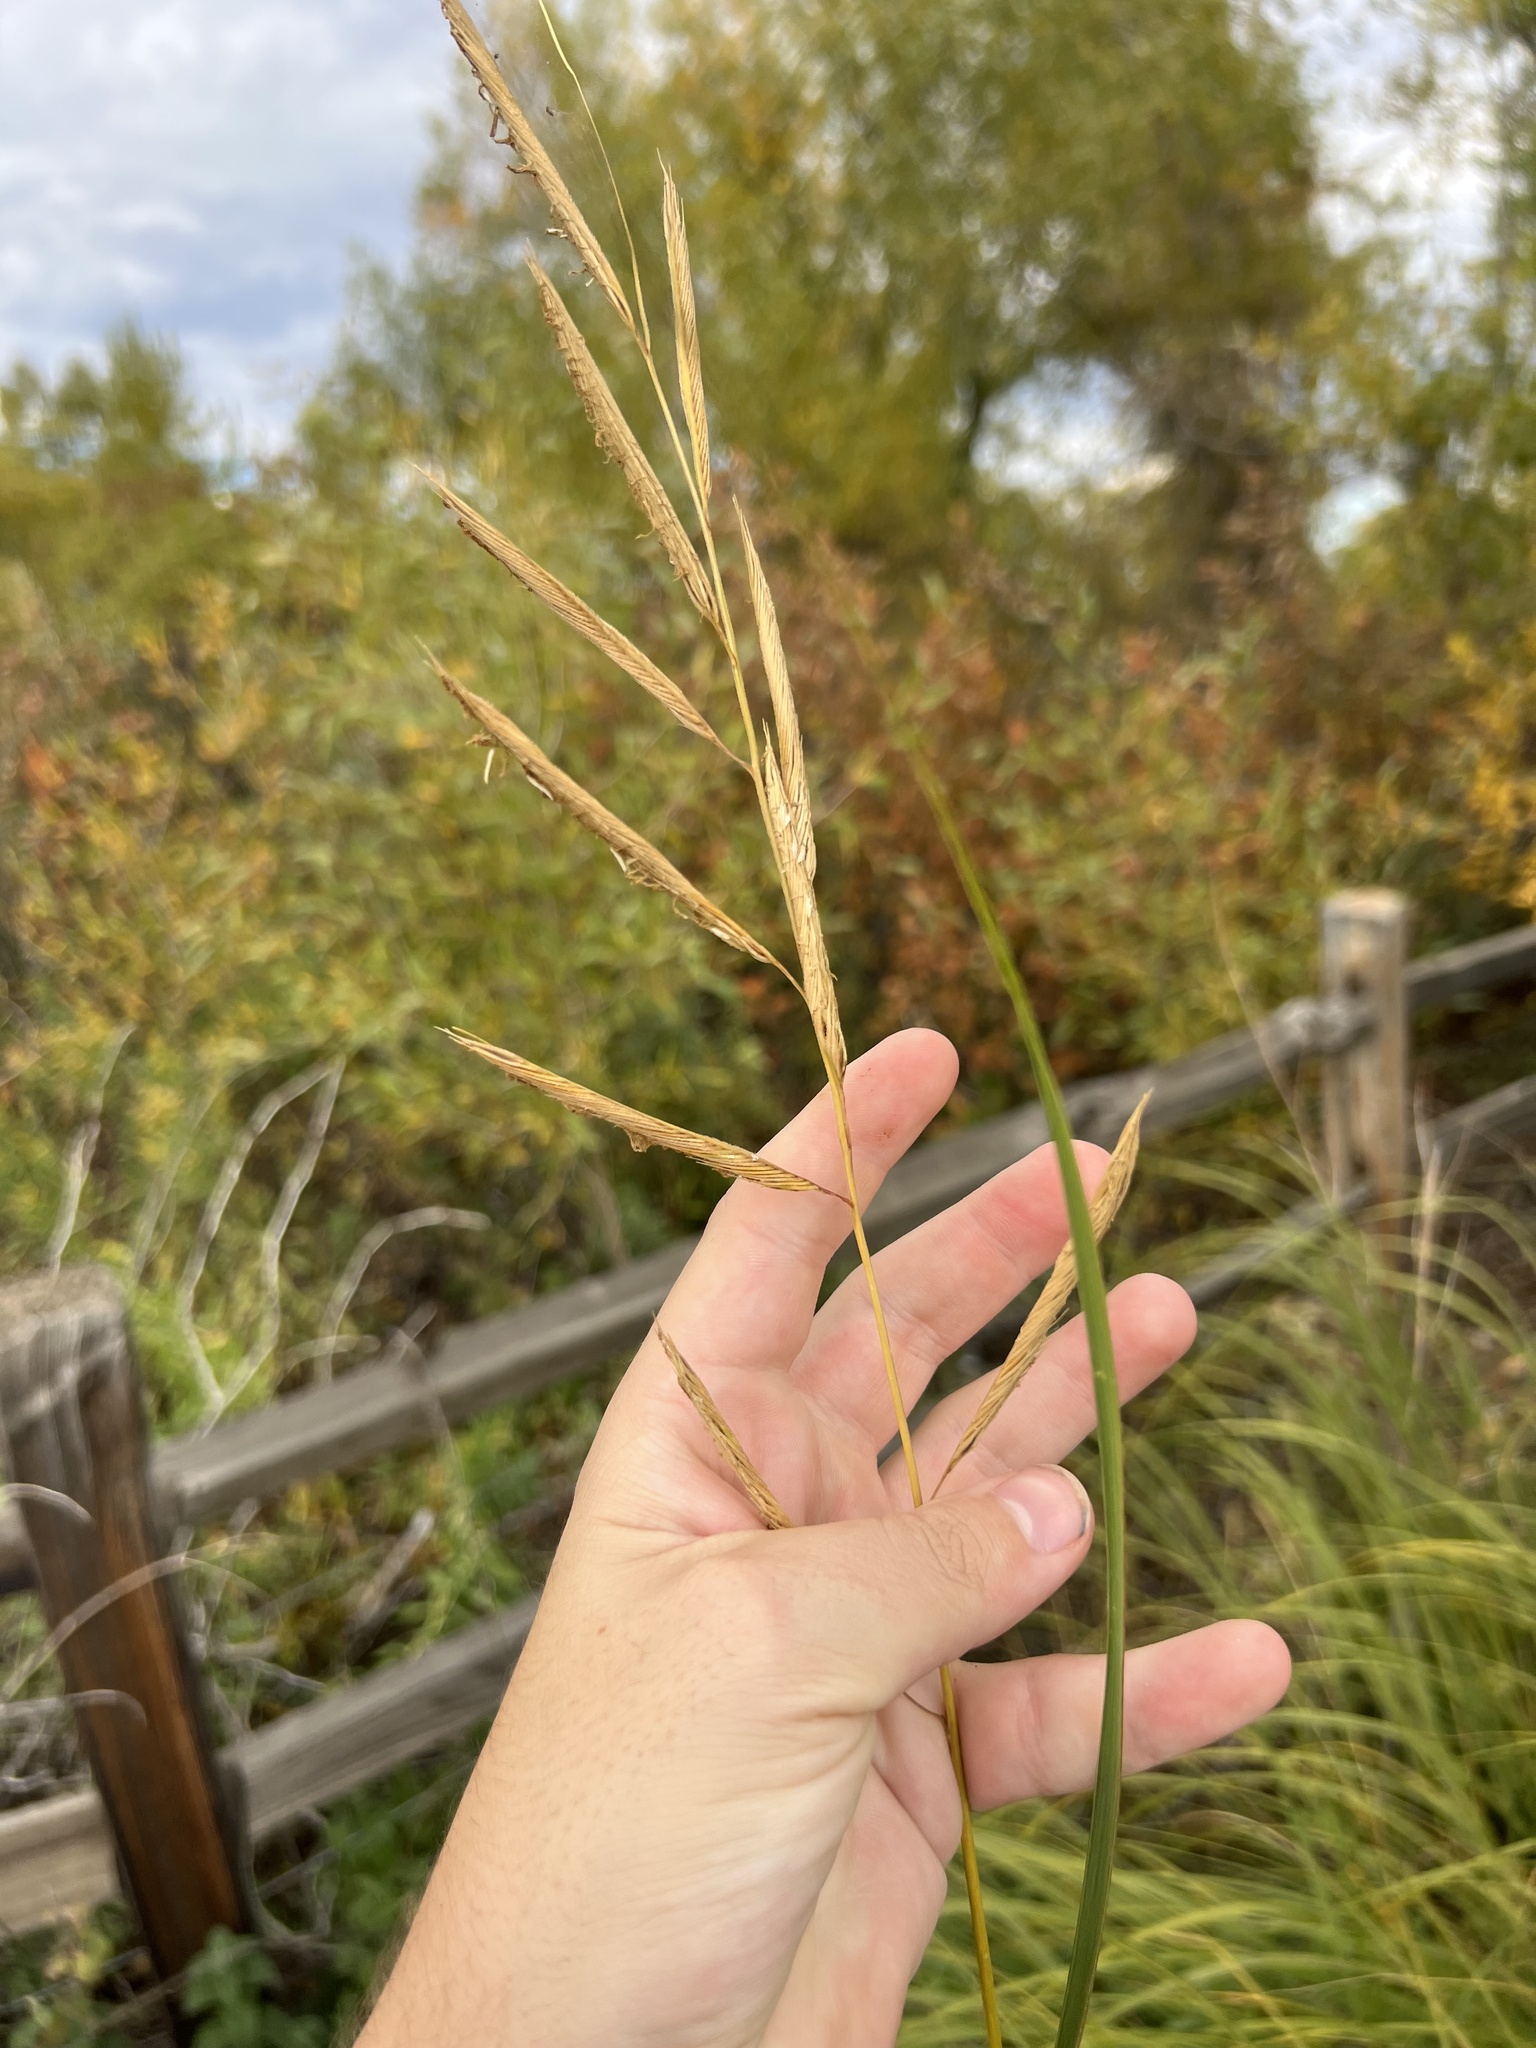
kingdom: Plantae
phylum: Tracheophyta
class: Liliopsida
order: Poales
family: Poaceae
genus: Sporobolus
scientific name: Sporobolus michauxianus
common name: Freshwater cordgrass
